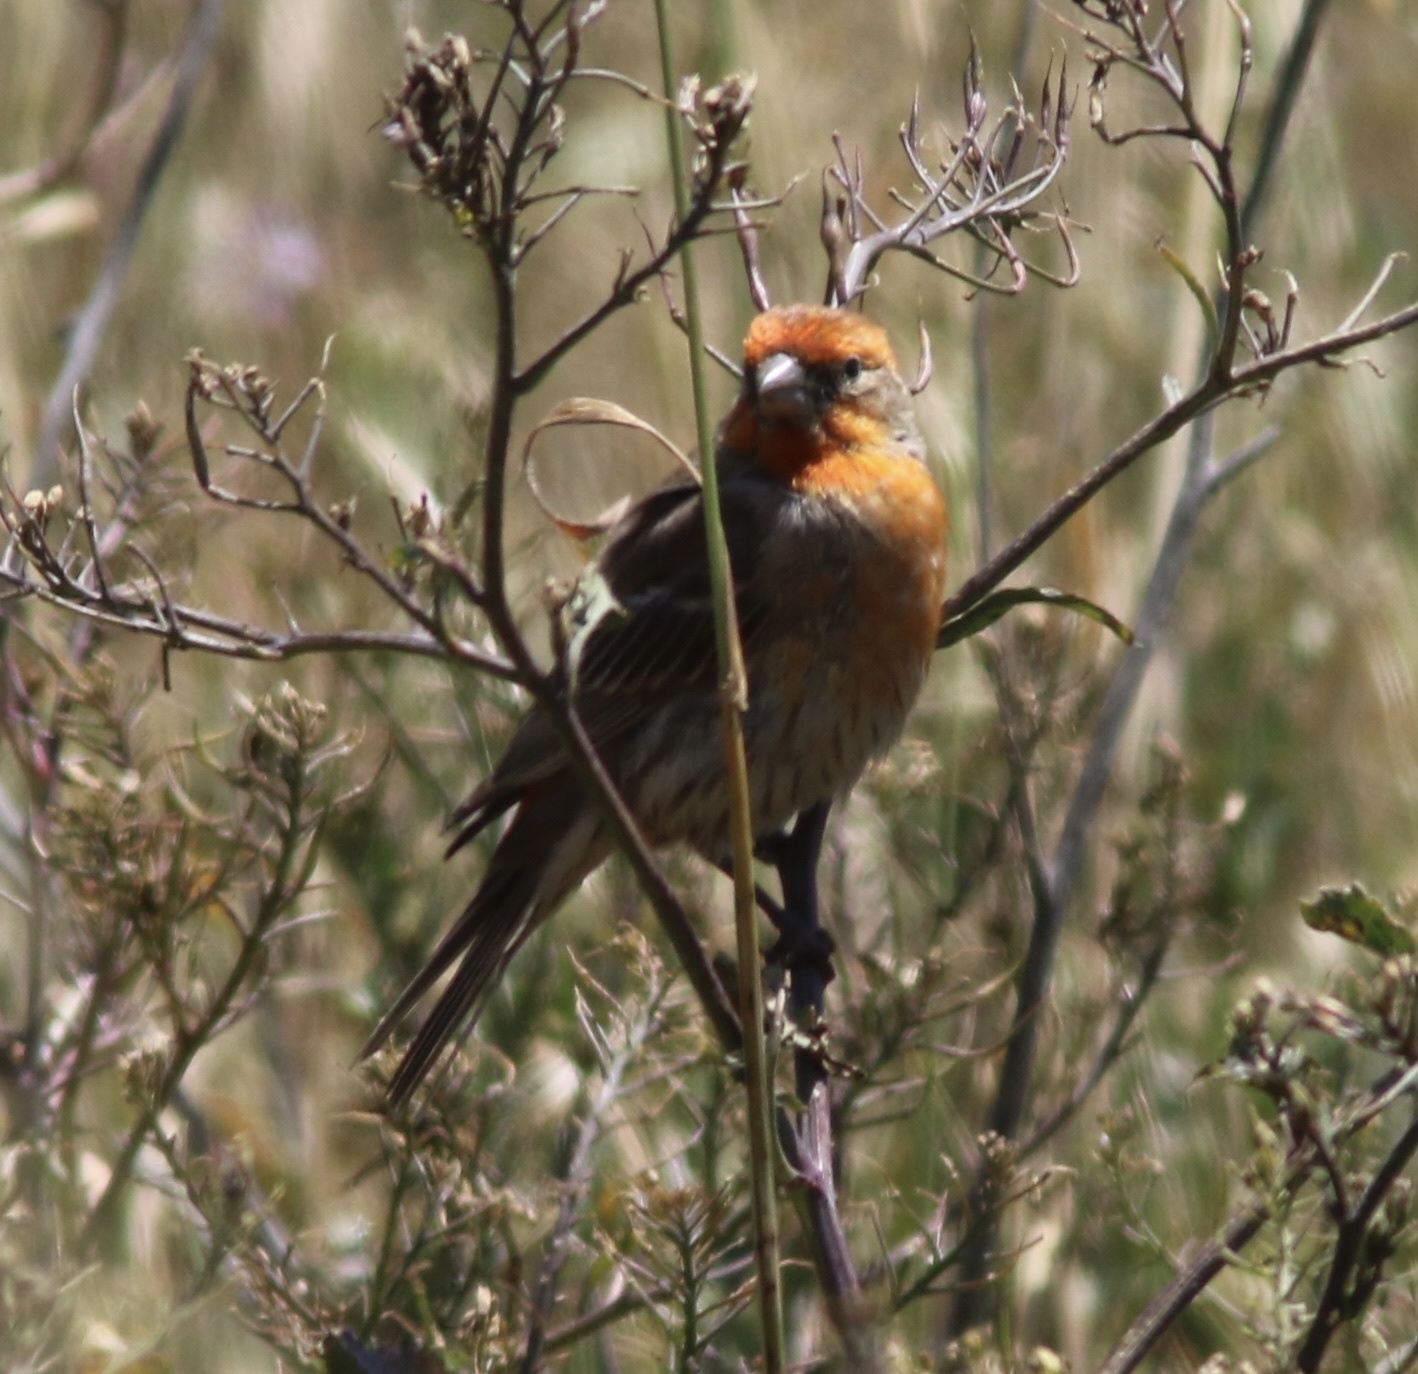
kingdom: Animalia
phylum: Chordata
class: Aves
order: Passeriformes
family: Fringillidae
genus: Haemorhous
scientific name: Haemorhous mexicanus
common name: House finch
